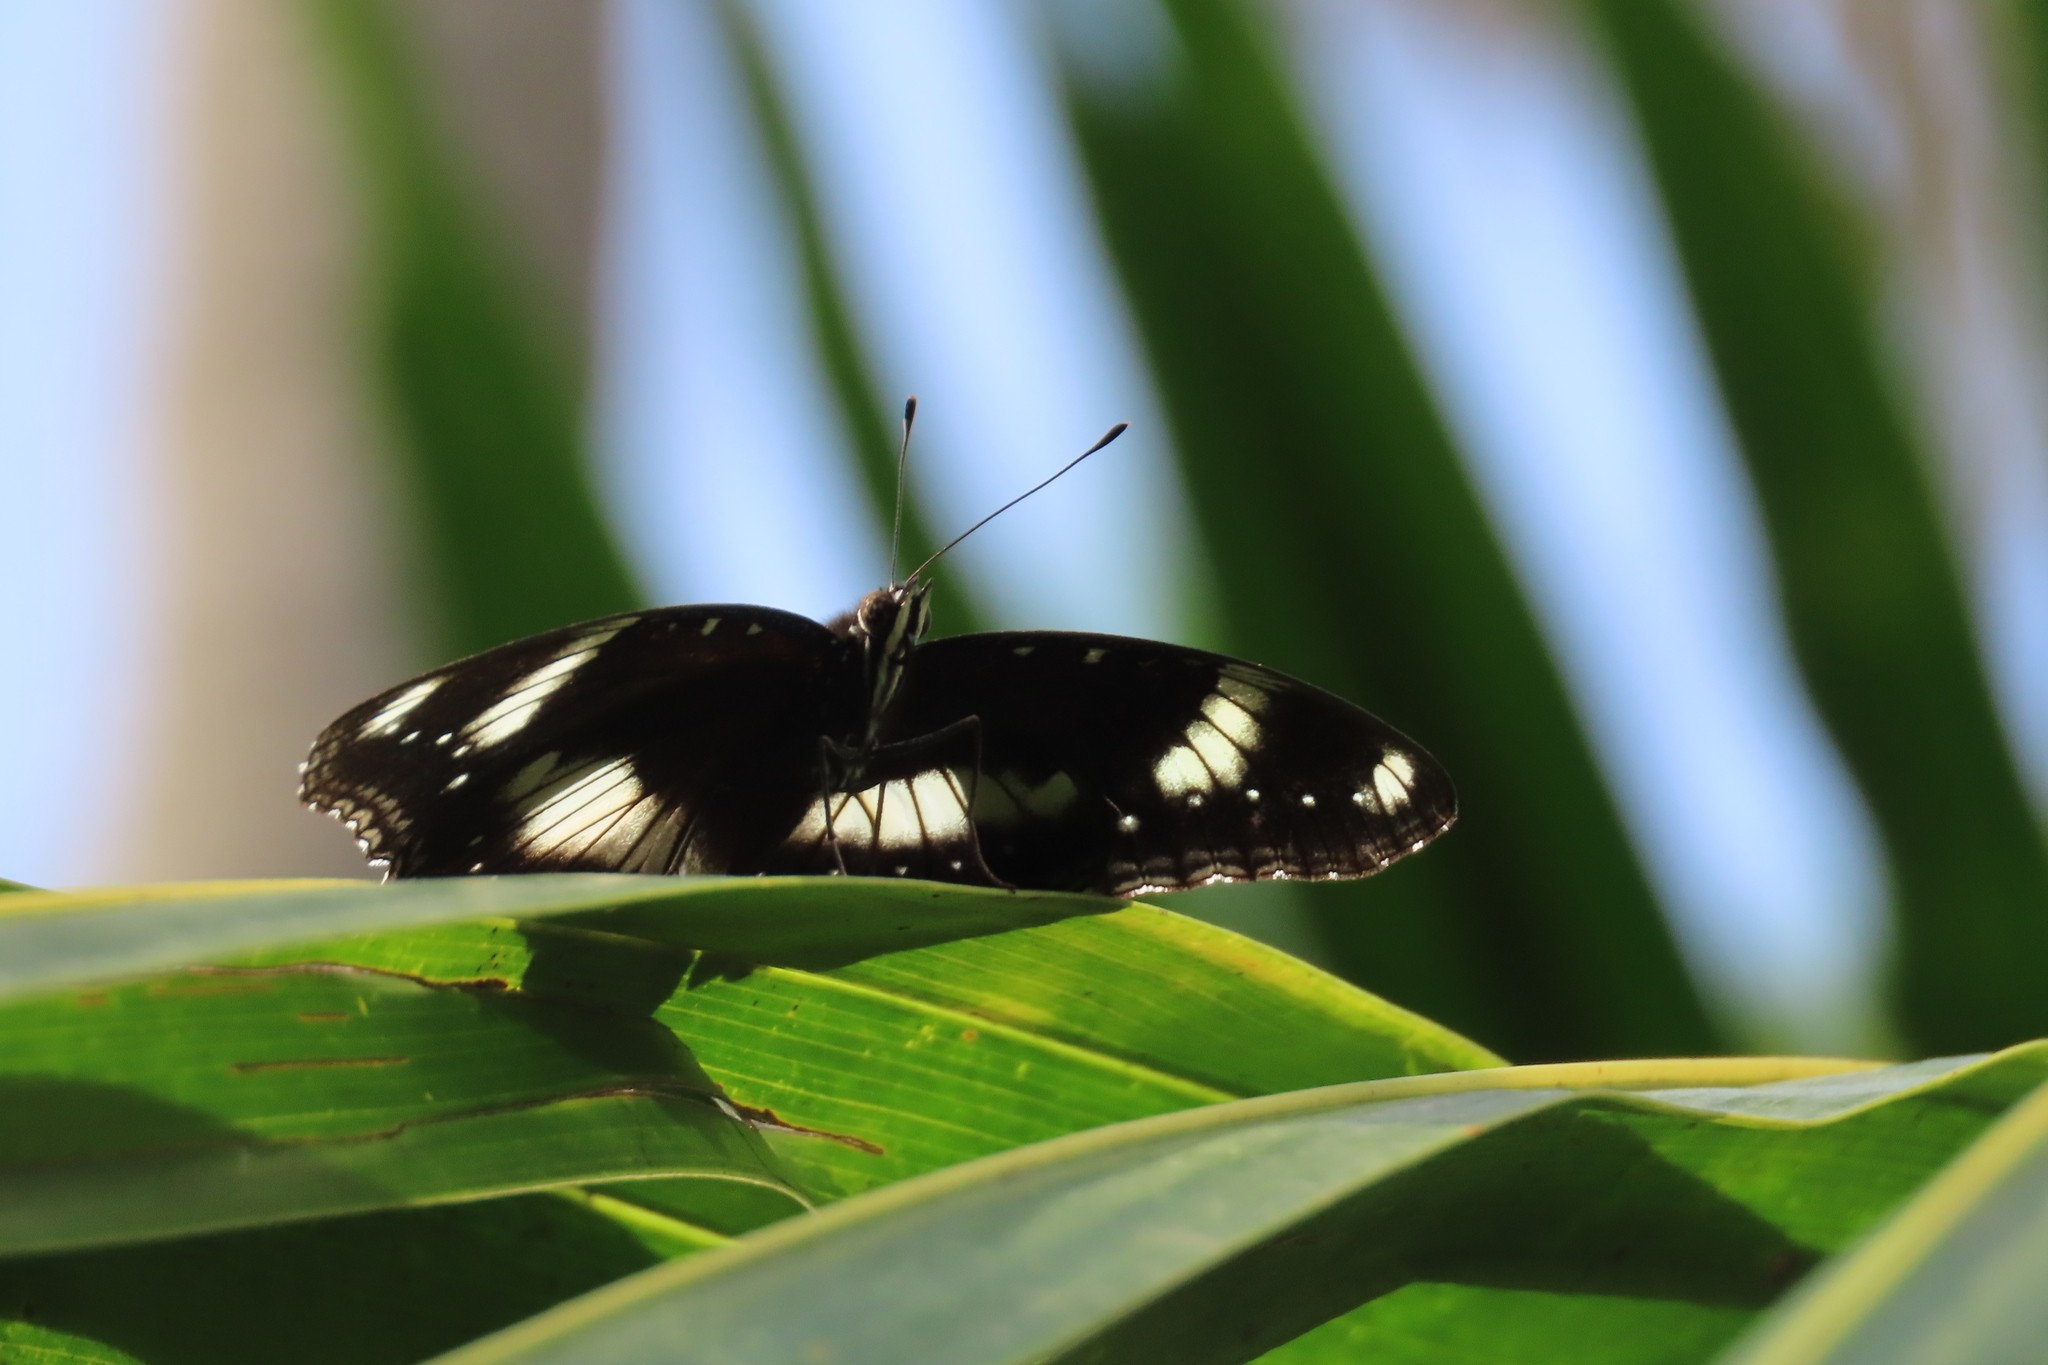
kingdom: Animalia
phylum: Arthropoda
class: Insecta
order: Lepidoptera
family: Nymphalidae
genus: Hypolimnas
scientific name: Hypolimnas bolina
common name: Great eggfly
